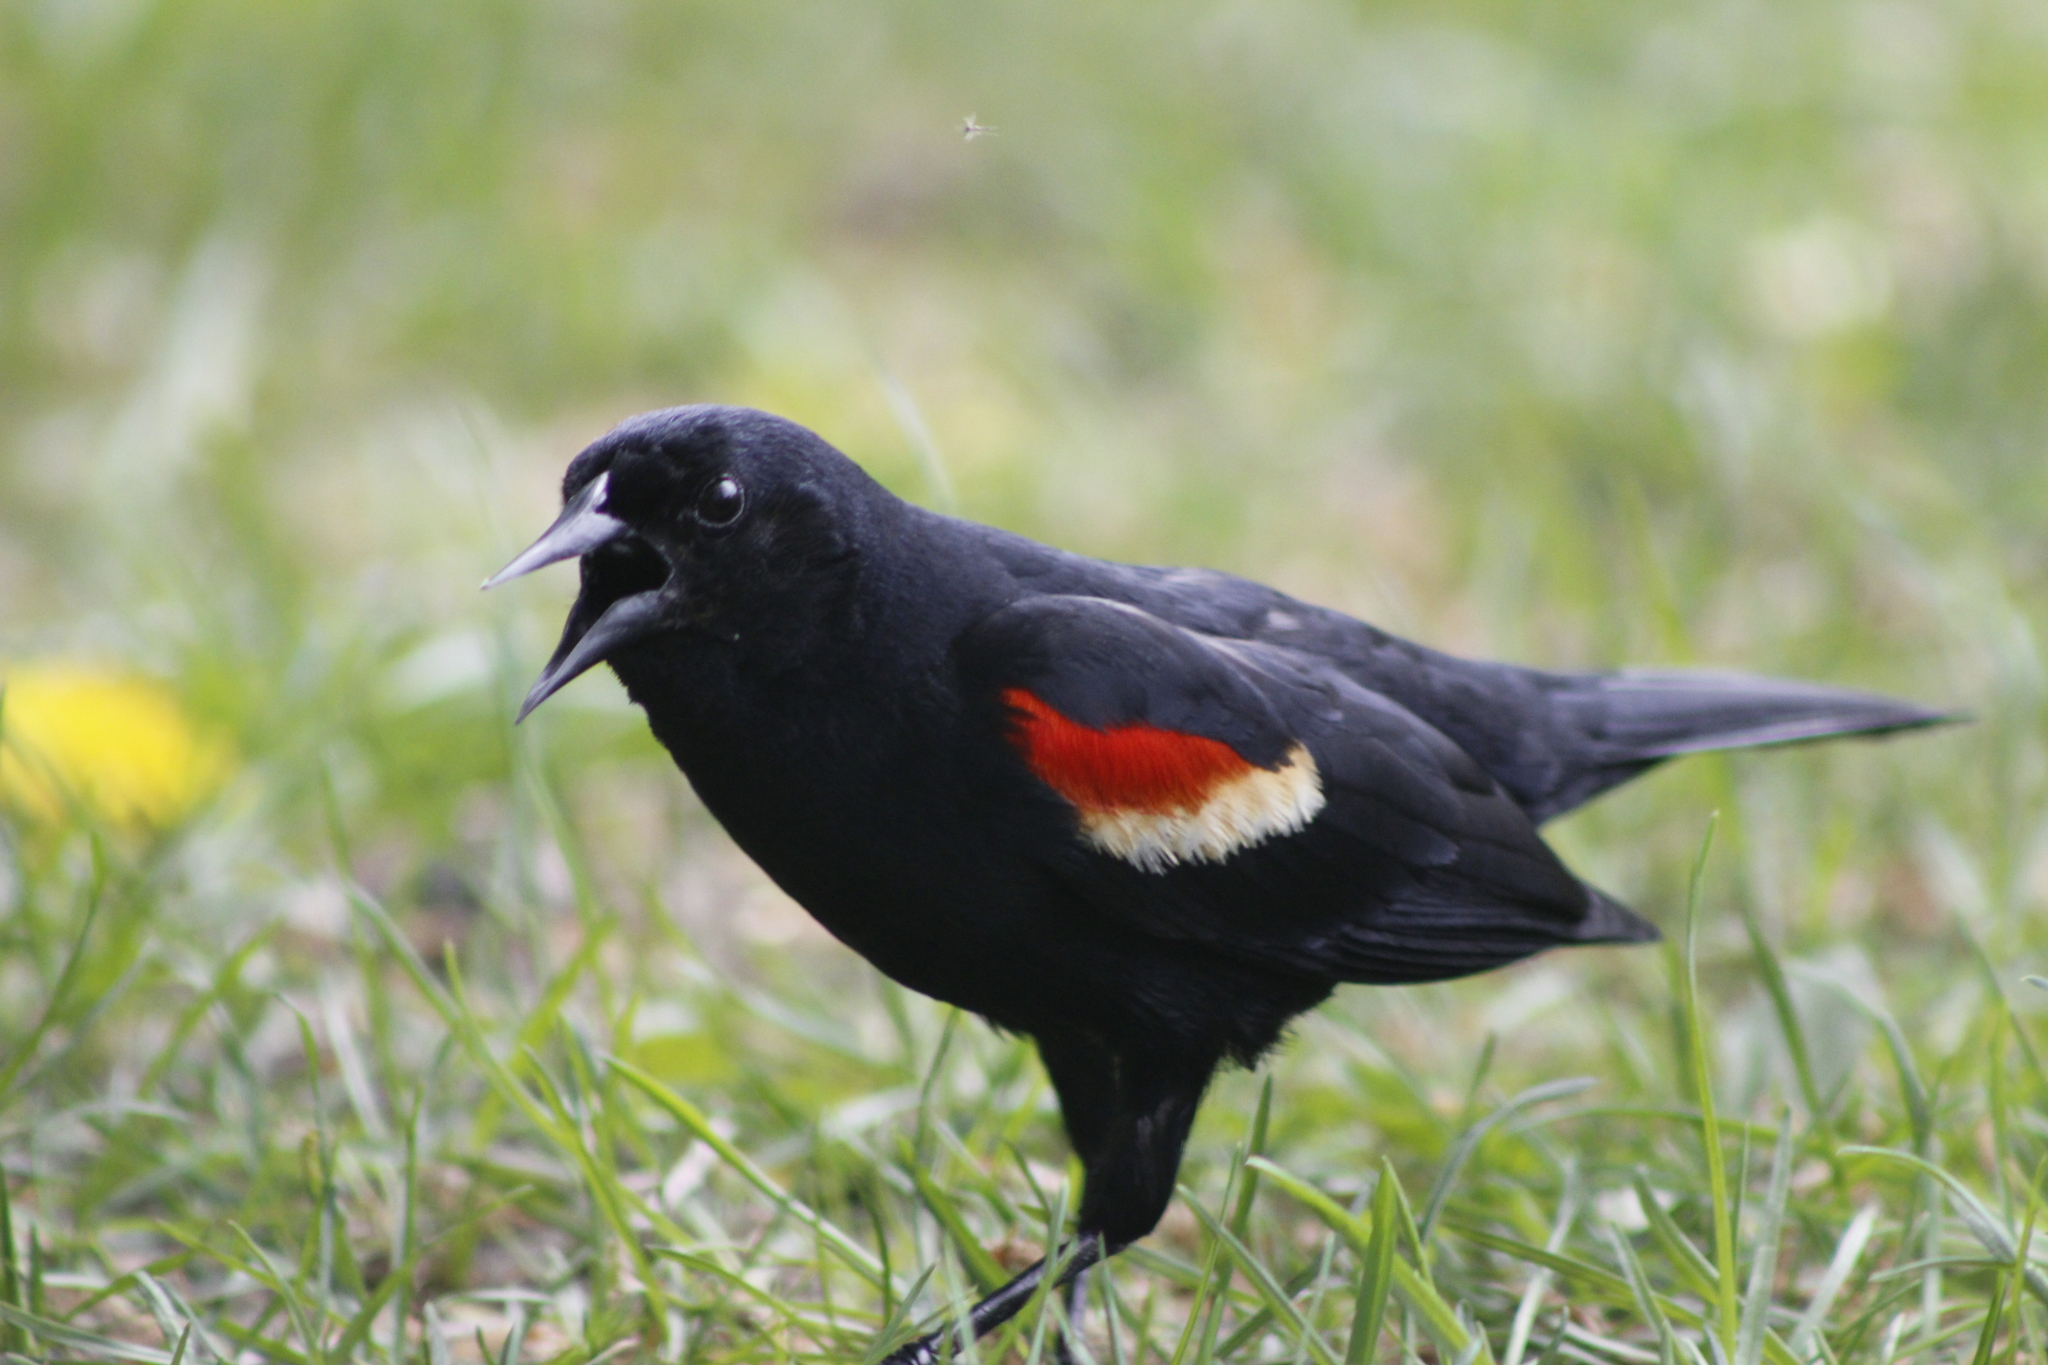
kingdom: Animalia
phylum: Chordata
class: Aves
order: Passeriformes
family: Icteridae
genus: Agelaius
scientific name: Agelaius phoeniceus
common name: Red-winged blackbird
